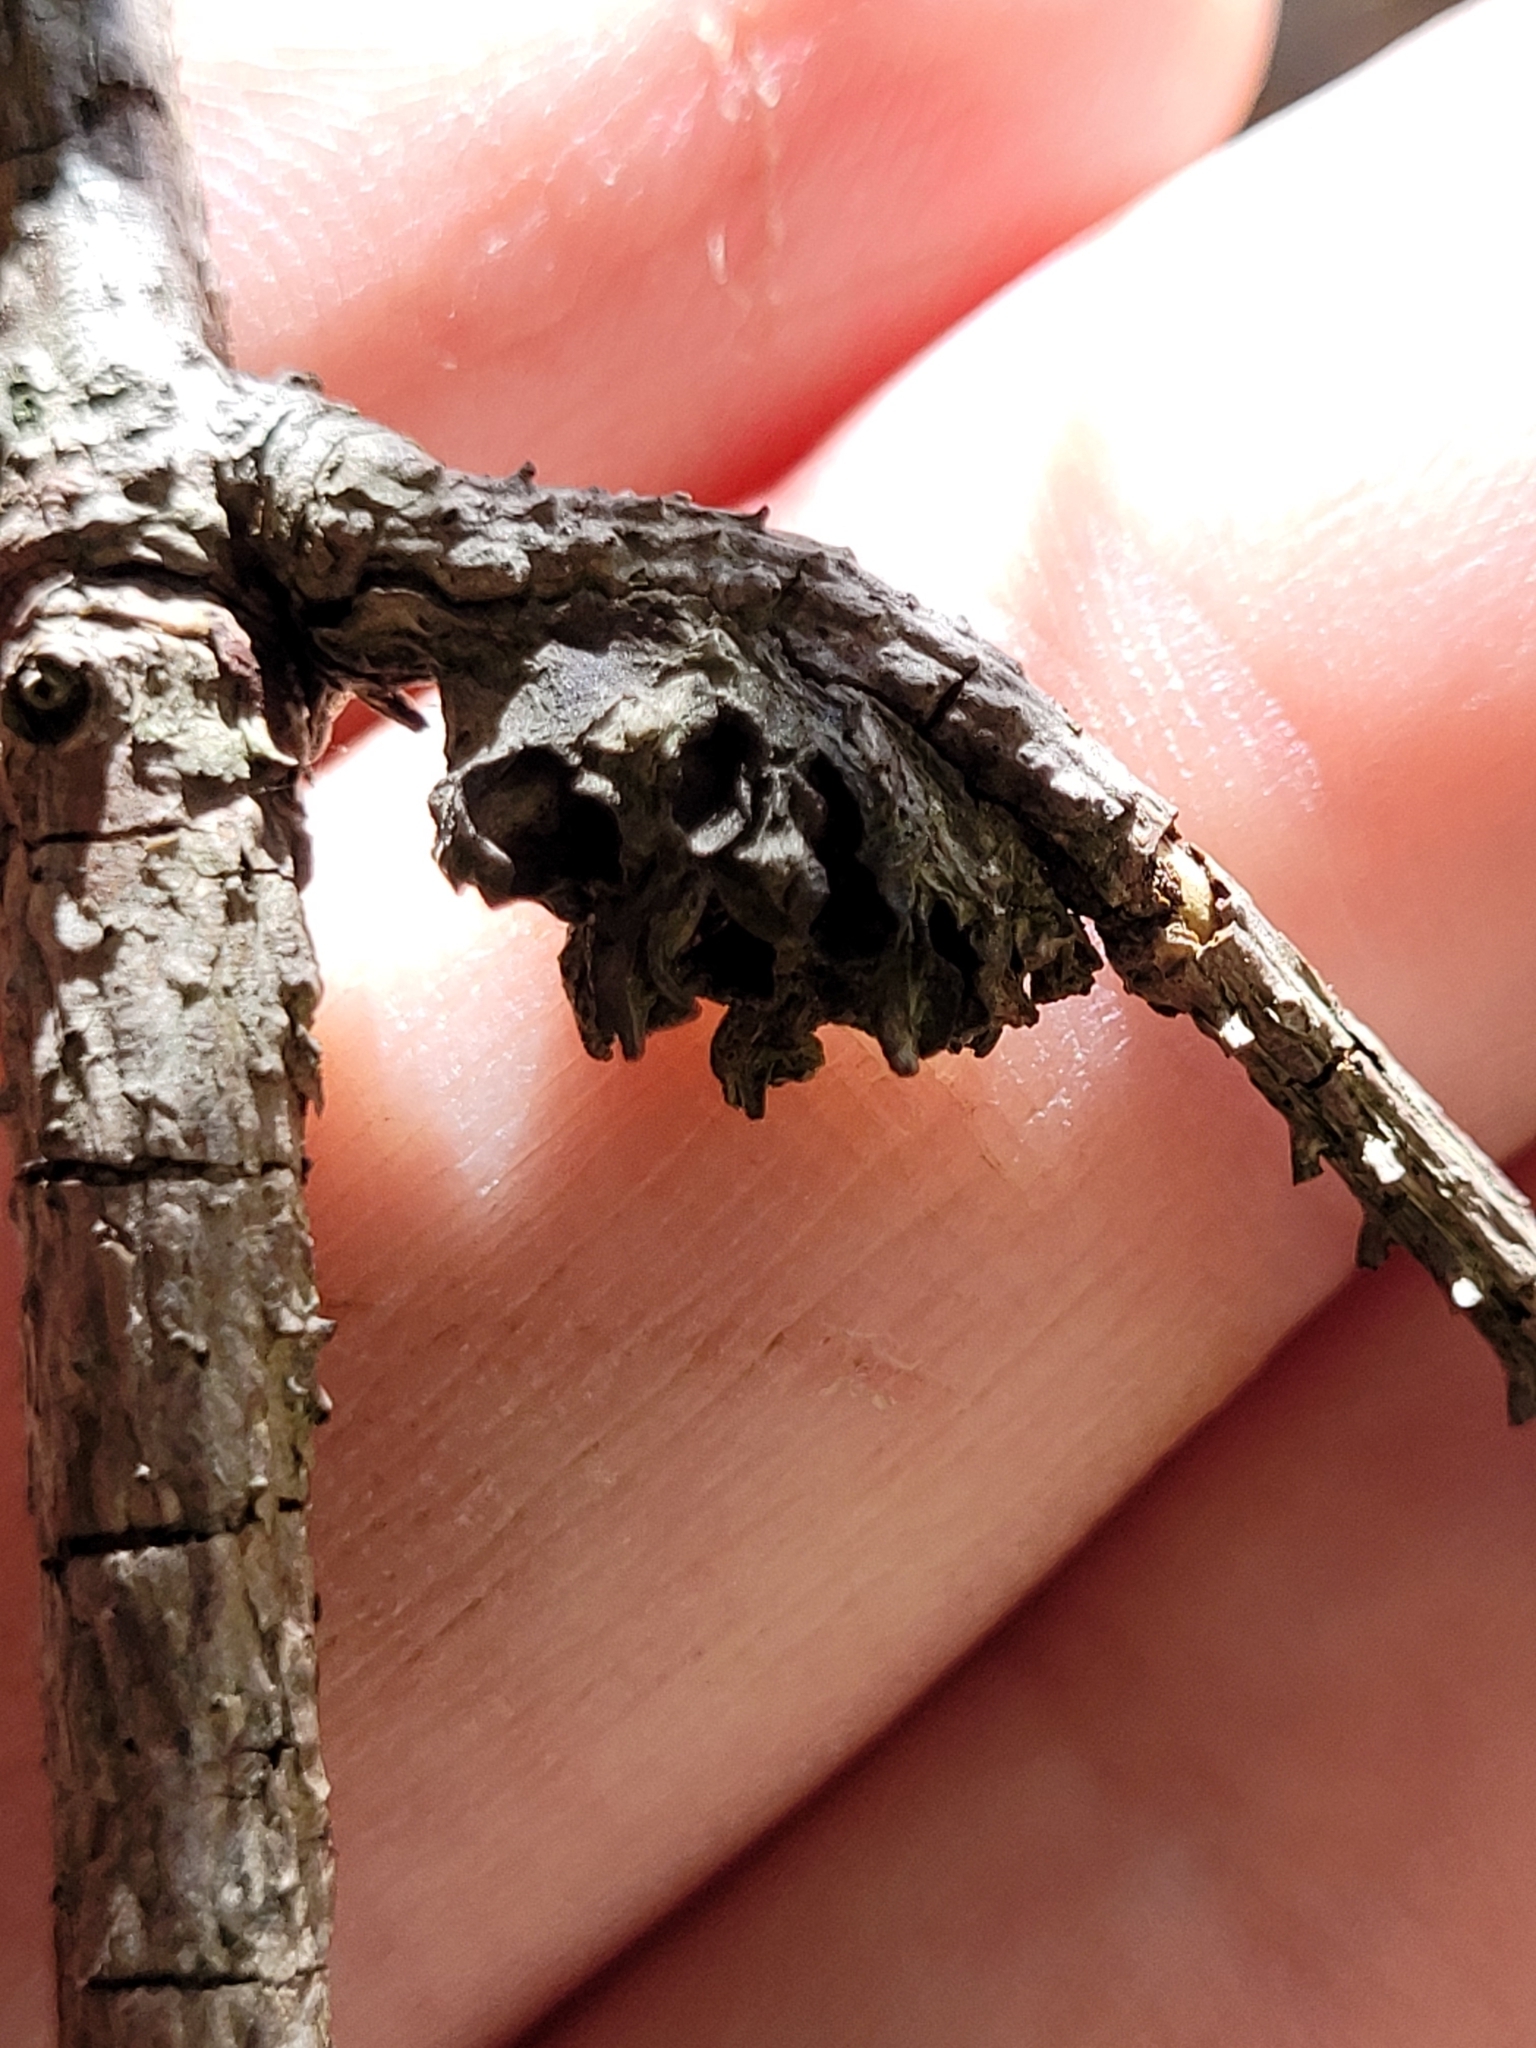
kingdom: Animalia
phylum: Arthropoda
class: Insecta
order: Hemiptera
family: Adelgidae
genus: Adelges
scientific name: Adelges abietis
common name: Eastern spruce gall adelgid
